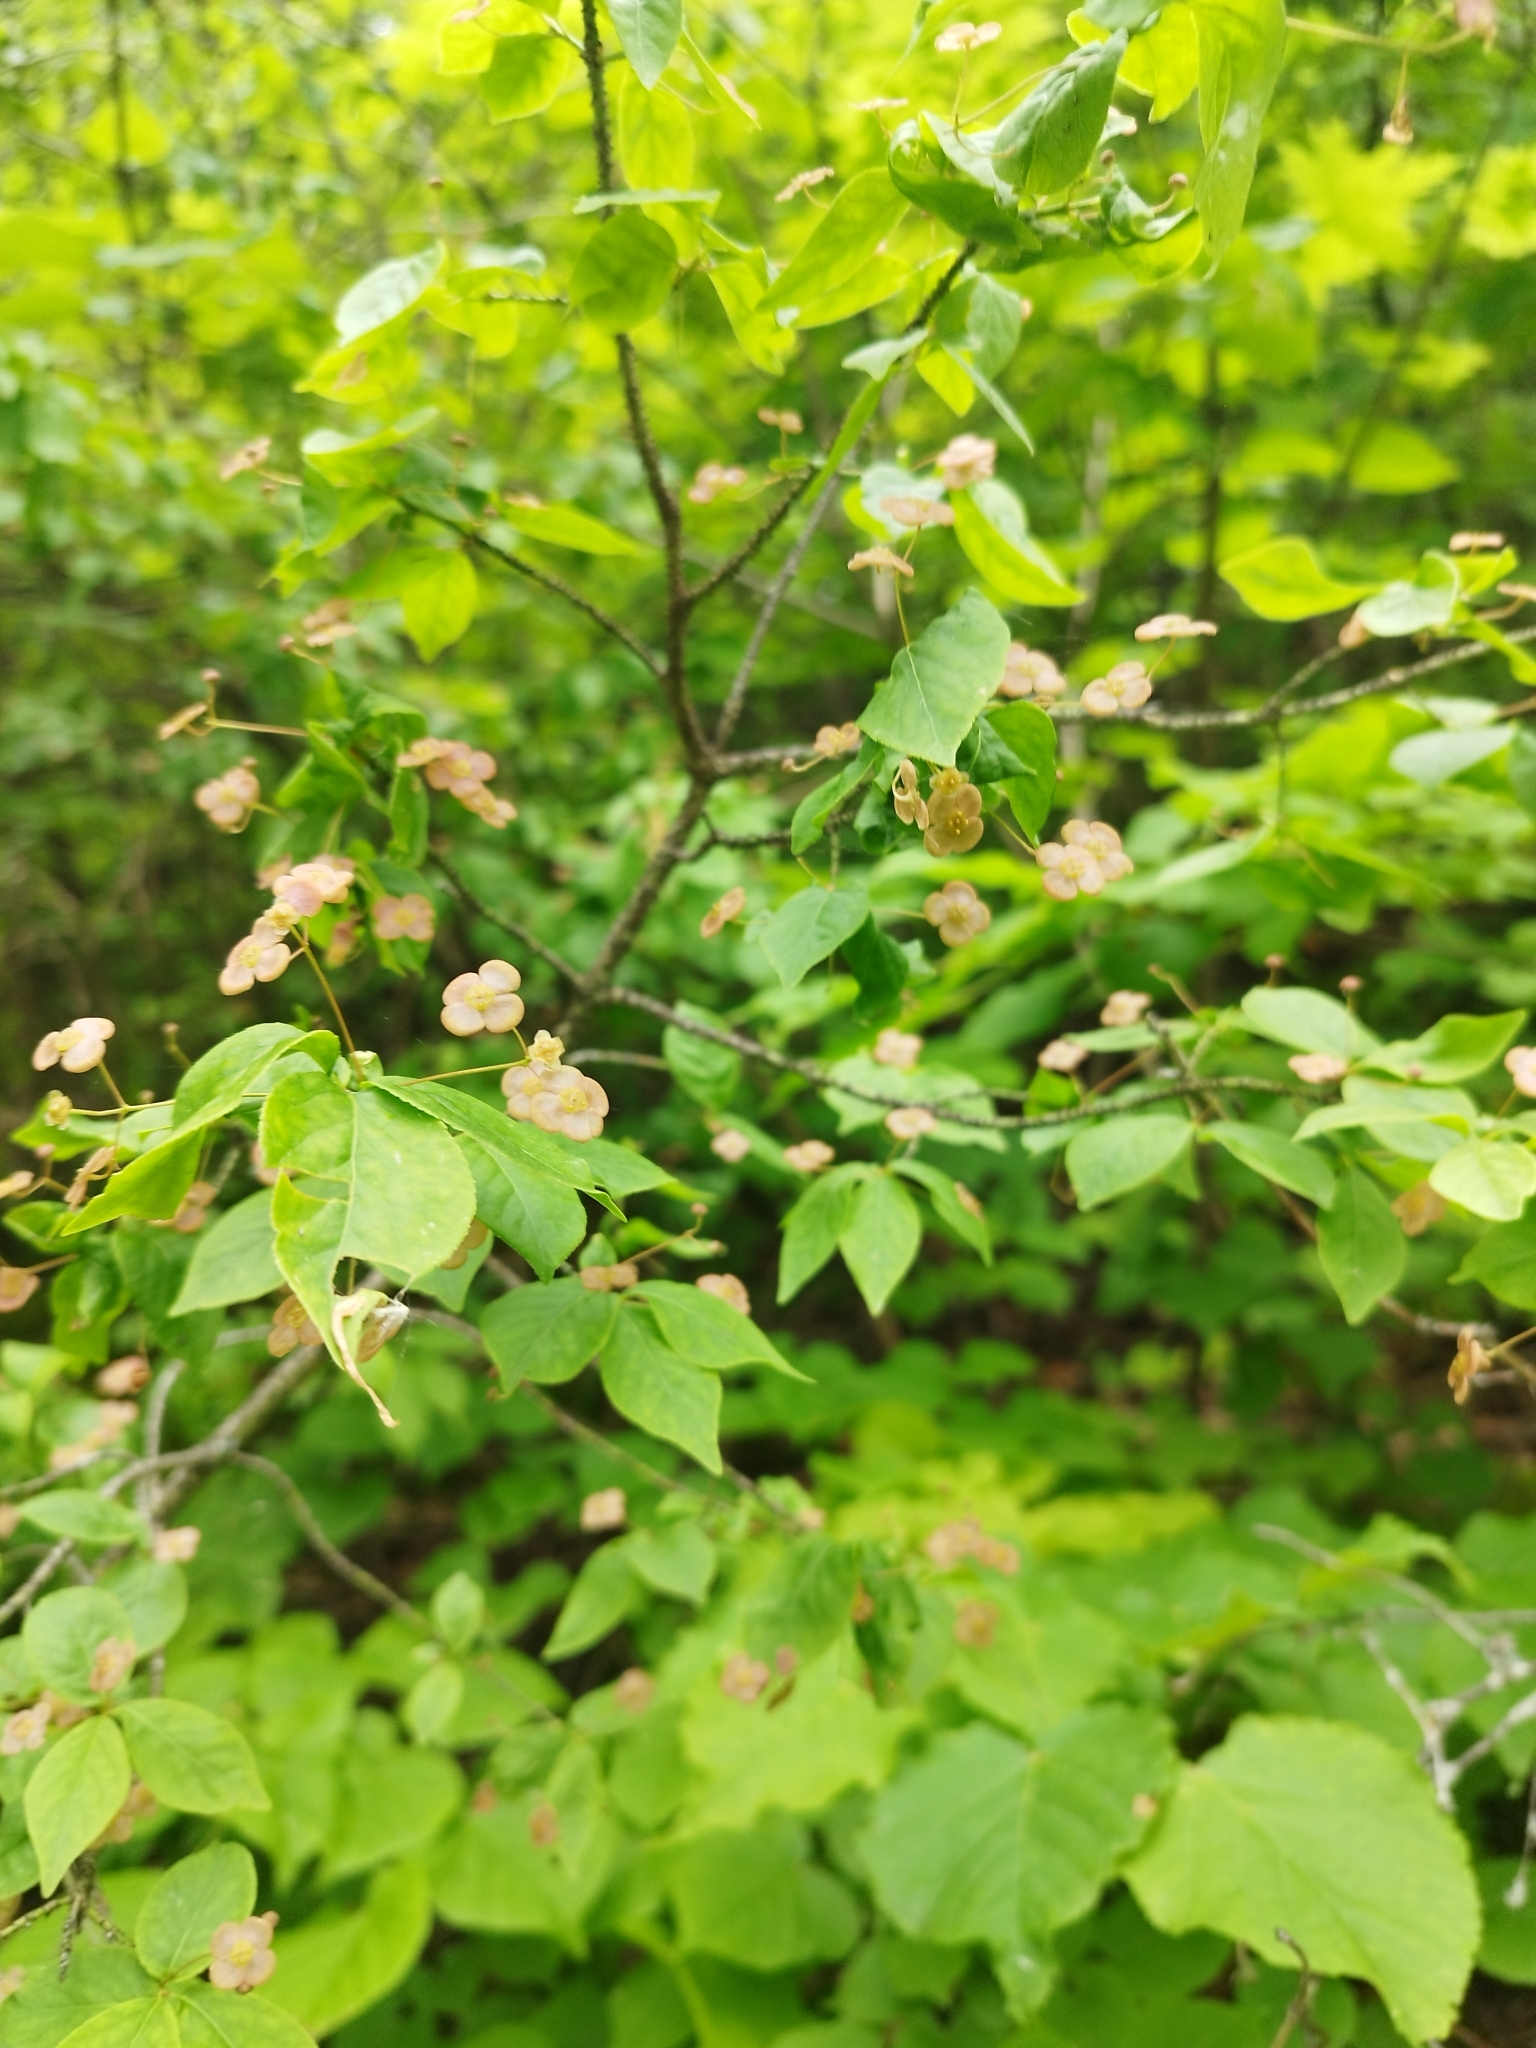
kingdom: Plantae
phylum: Tracheophyta
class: Magnoliopsida
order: Celastrales
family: Celastraceae
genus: Euonymus
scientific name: Euonymus verrucosus
